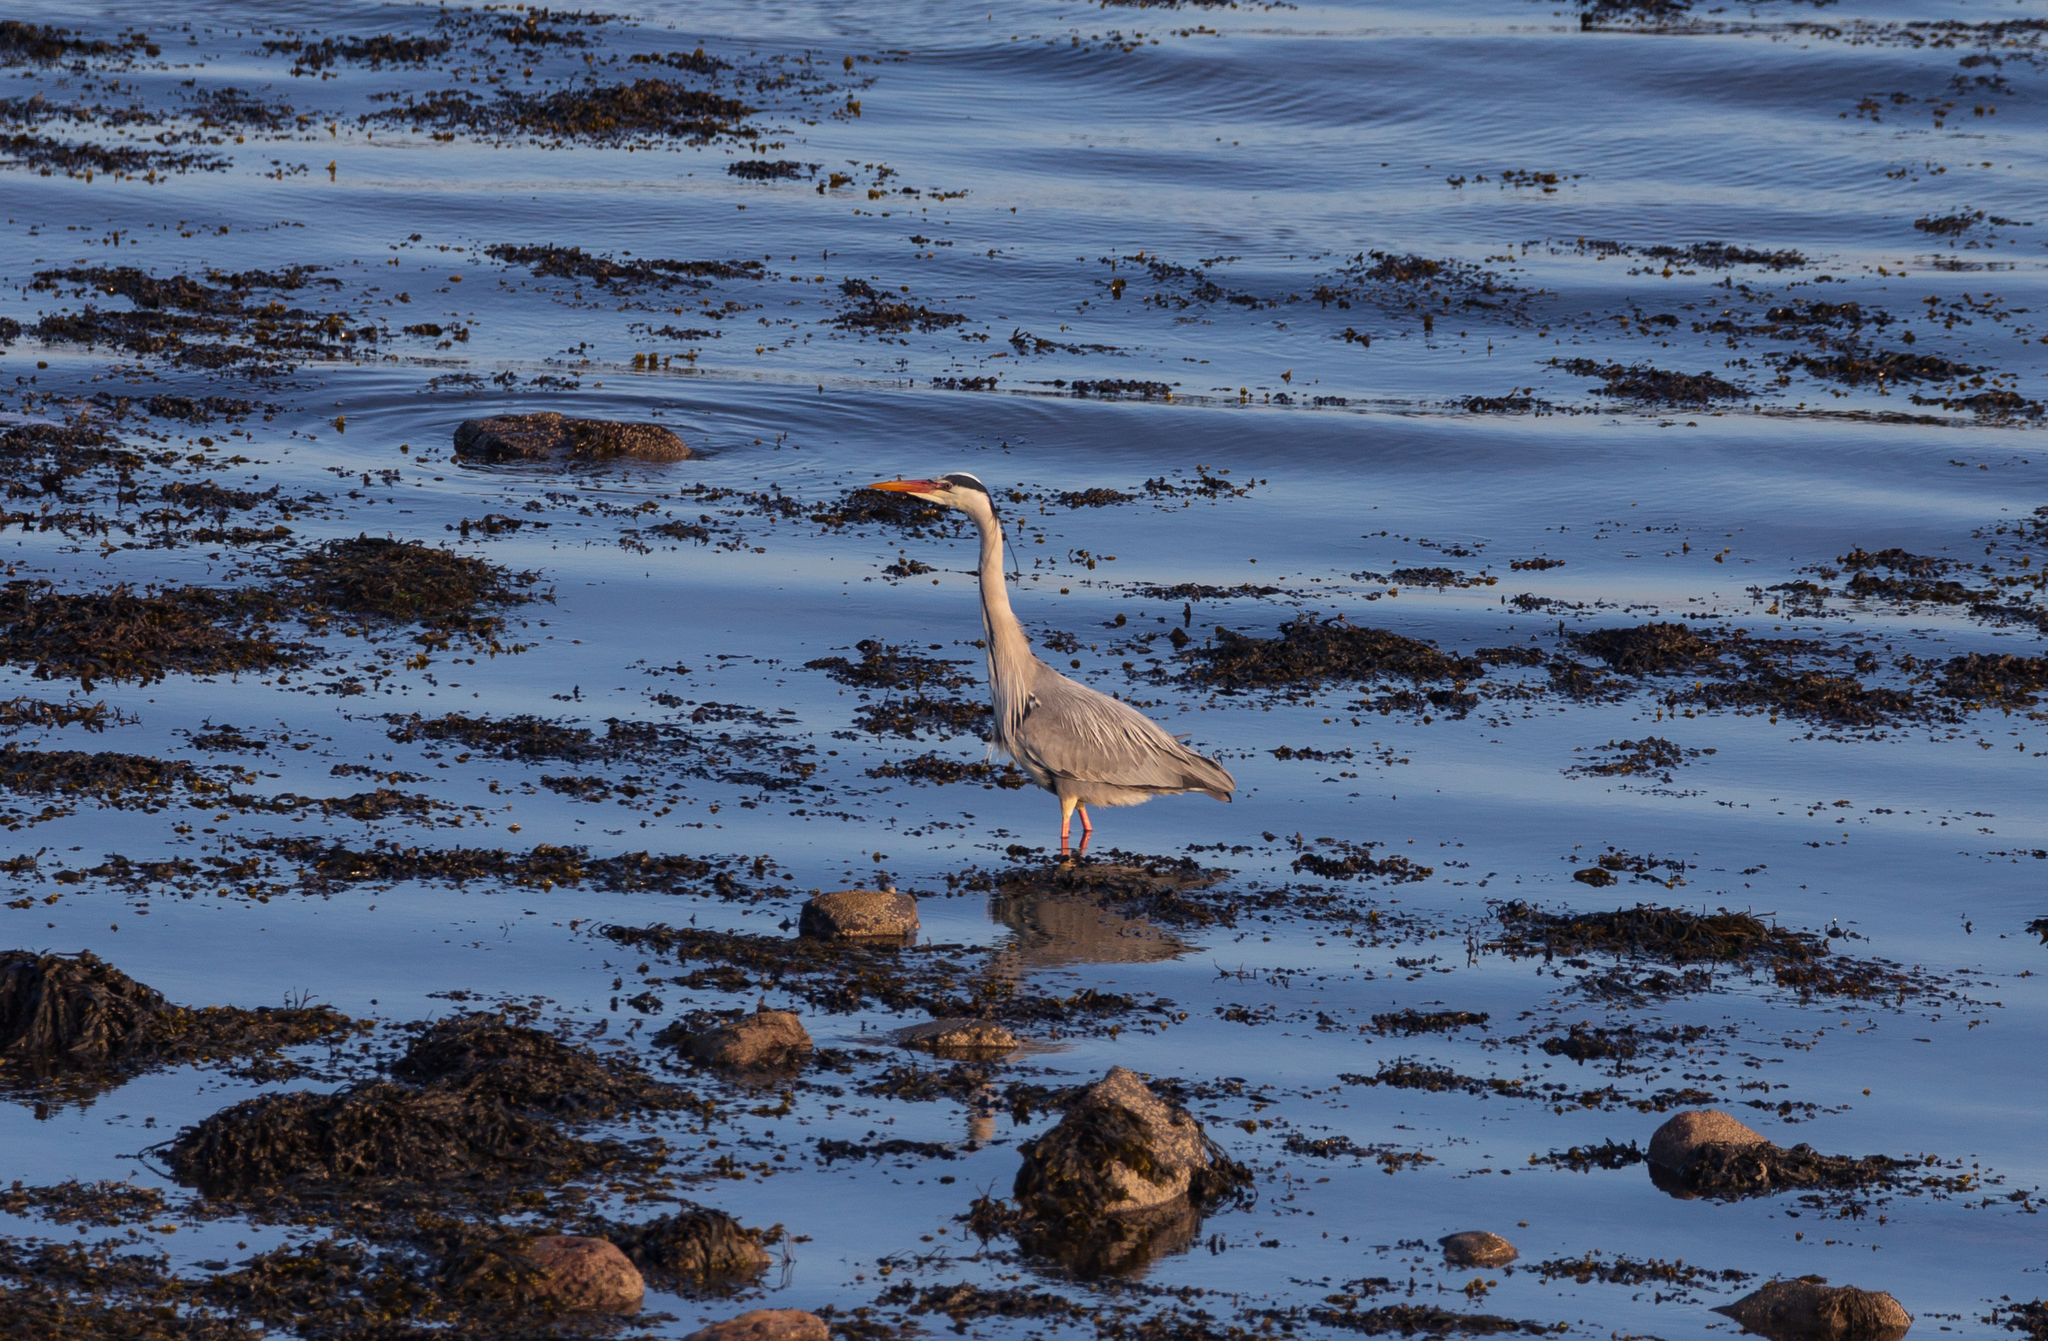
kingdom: Animalia
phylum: Chordata
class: Aves
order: Pelecaniformes
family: Ardeidae
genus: Ardea
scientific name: Ardea cinerea
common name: Grey heron
